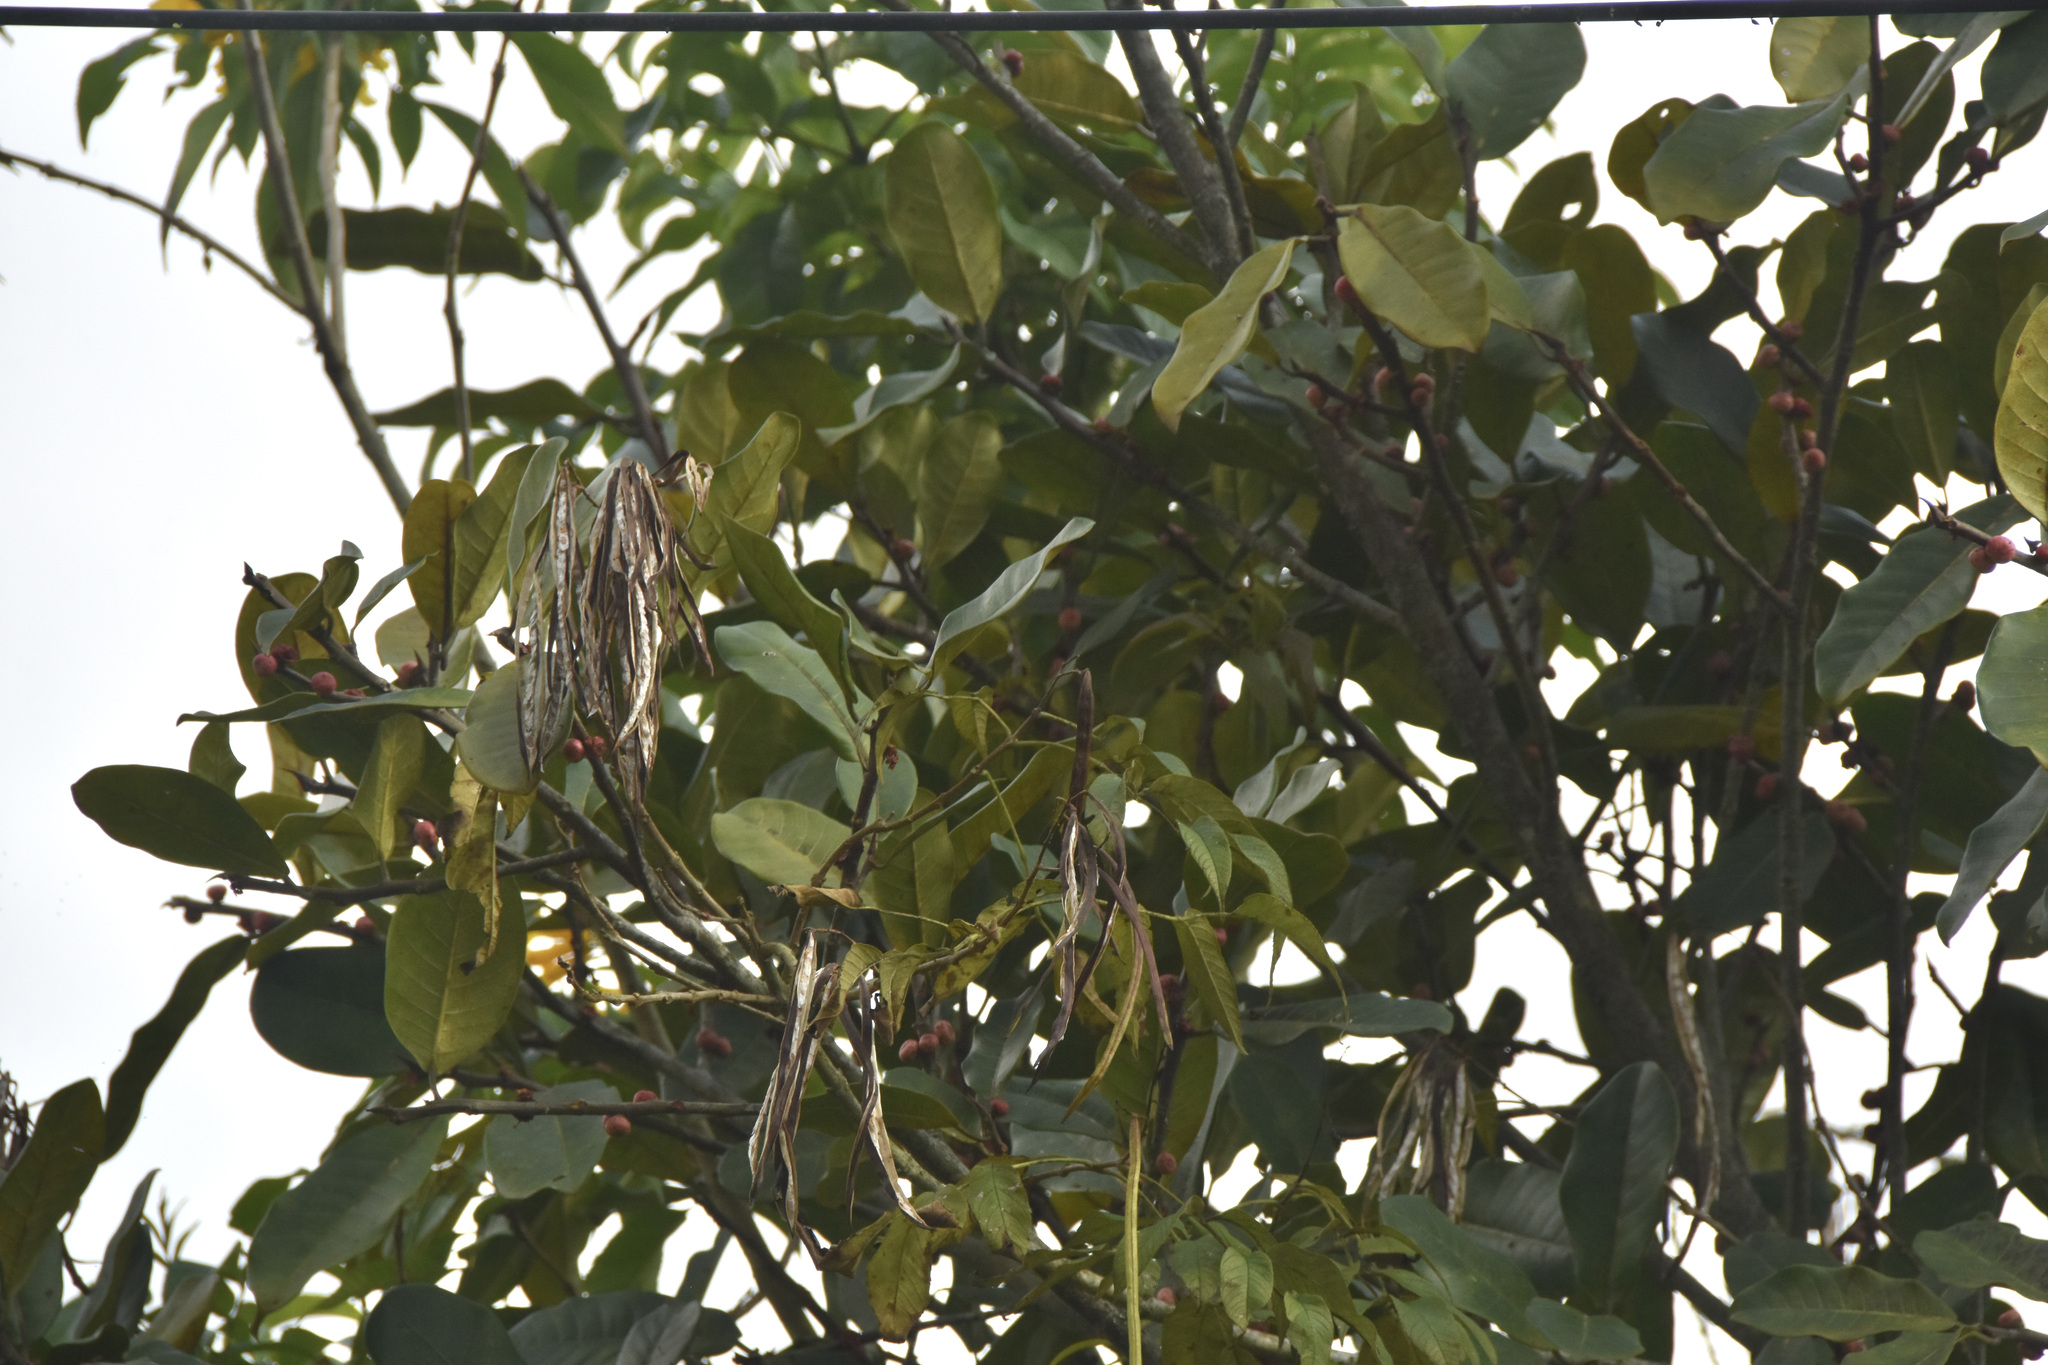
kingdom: Plantae
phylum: Tracheophyta
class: Magnoliopsida
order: Lamiales
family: Bignoniaceae
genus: Tecoma
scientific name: Tecoma stans
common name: Yellow trumpetbush
